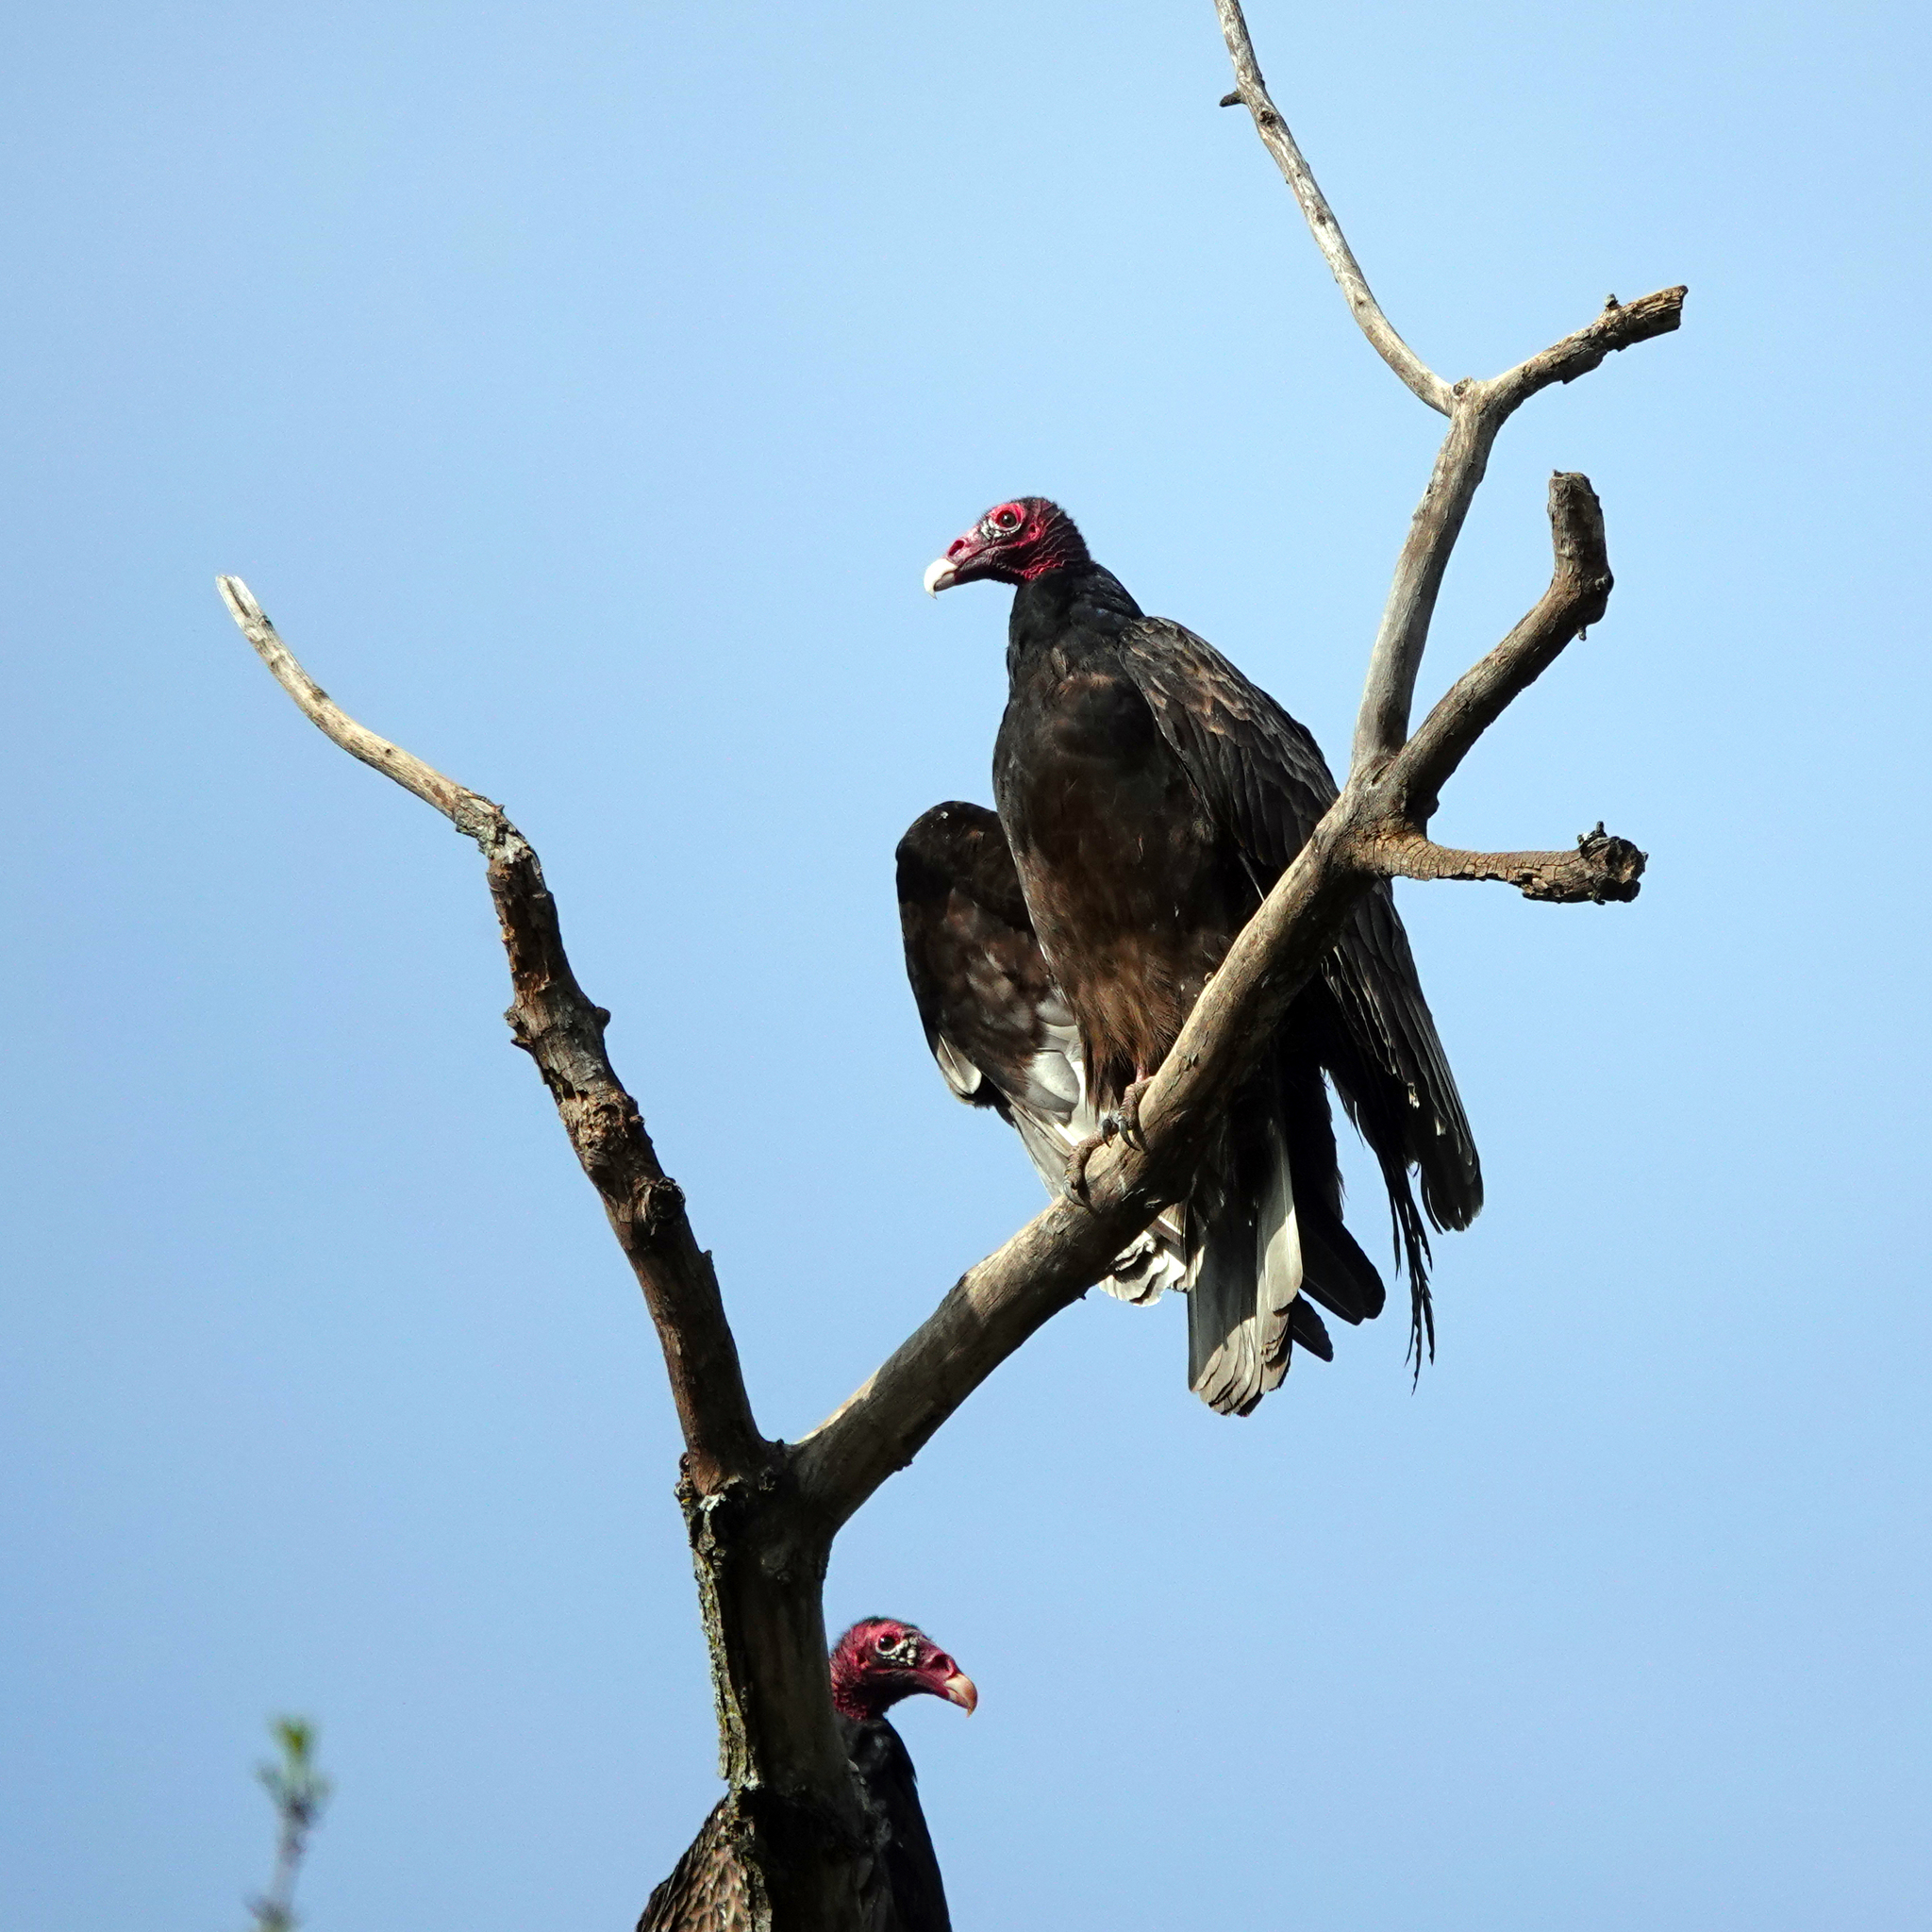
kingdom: Animalia
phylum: Chordata
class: Aves
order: Accipitriformes
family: Cathartidae
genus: Cathartes
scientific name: Cathartes aura
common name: Turkey vulture
